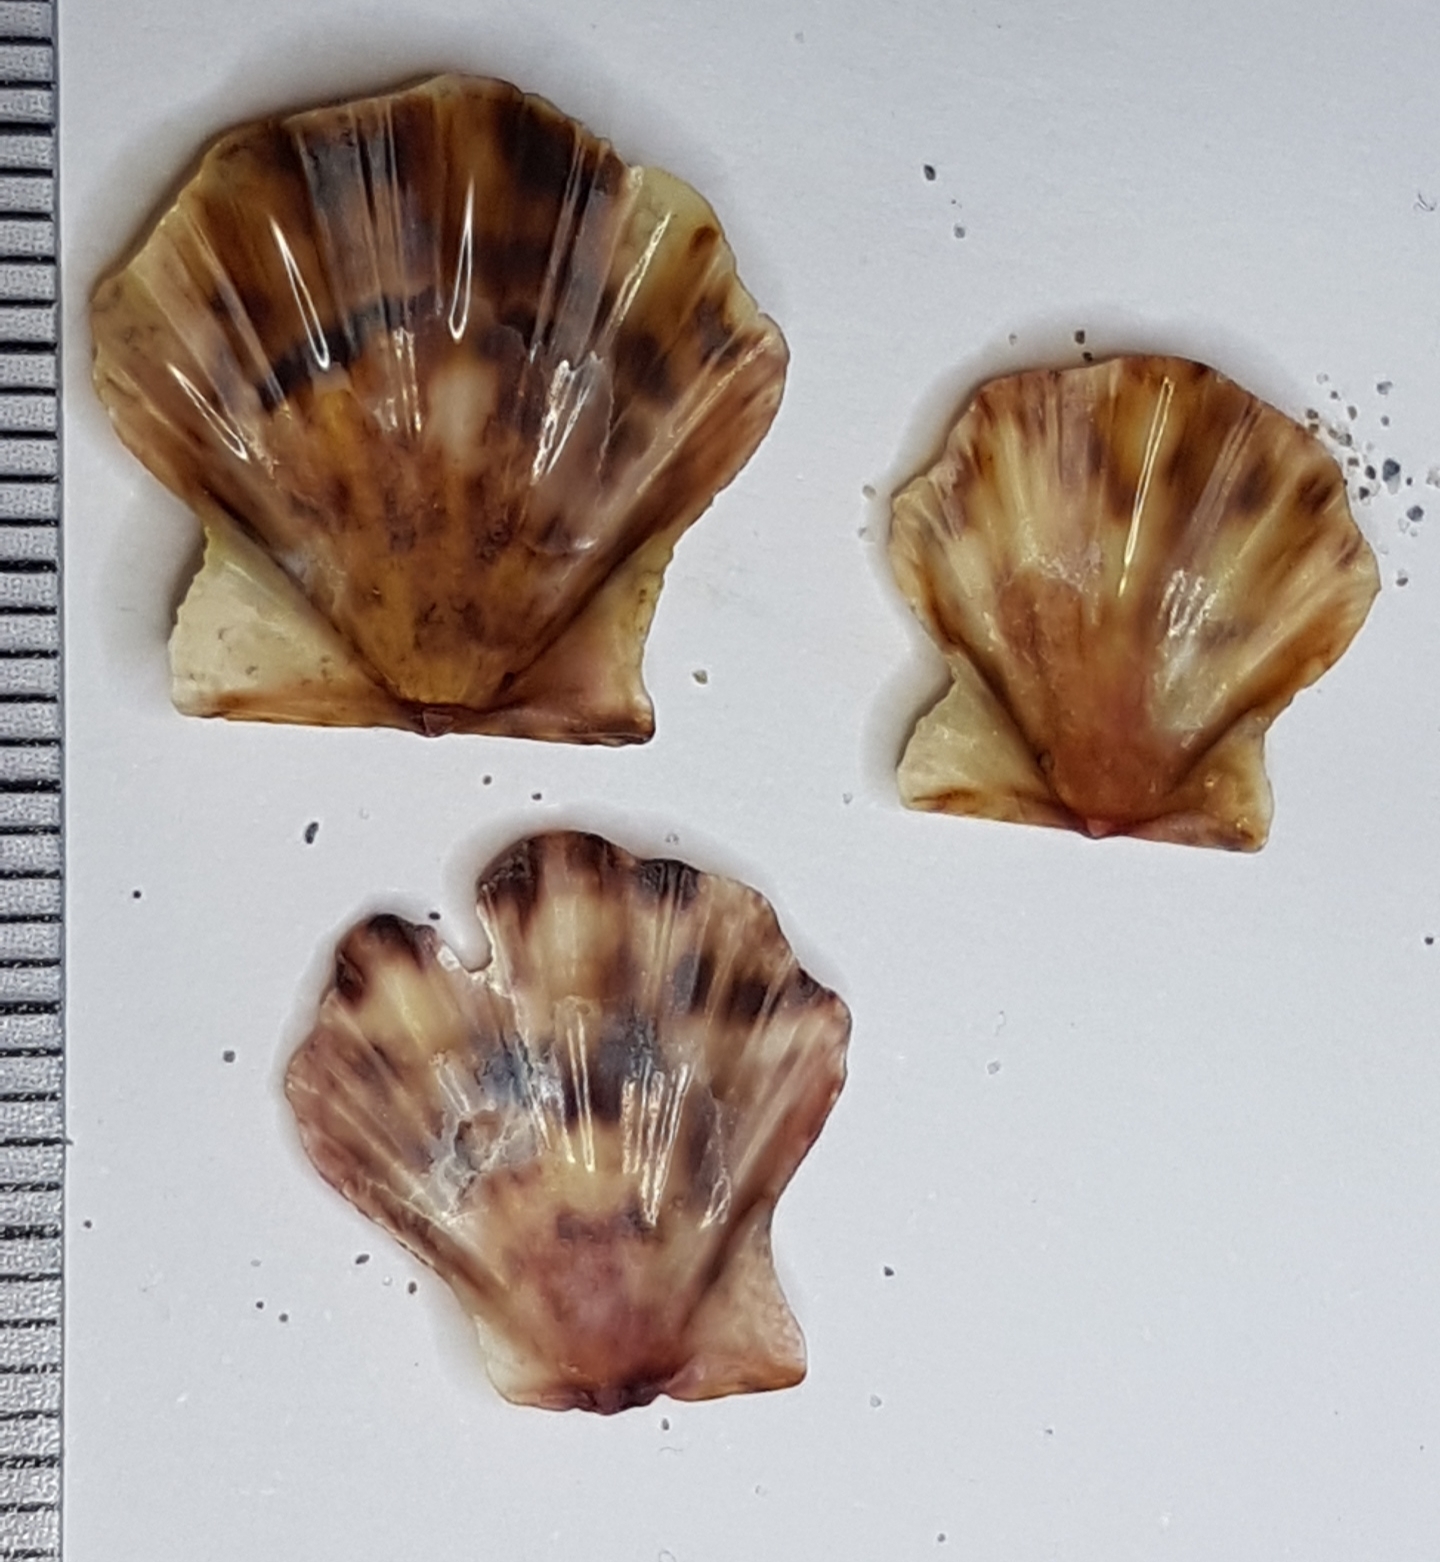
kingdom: Animalia
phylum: Mollusca
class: Bivalvia
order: Pectinida
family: Pectinidae
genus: Flexopecten
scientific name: Flexopecten flexuosus
